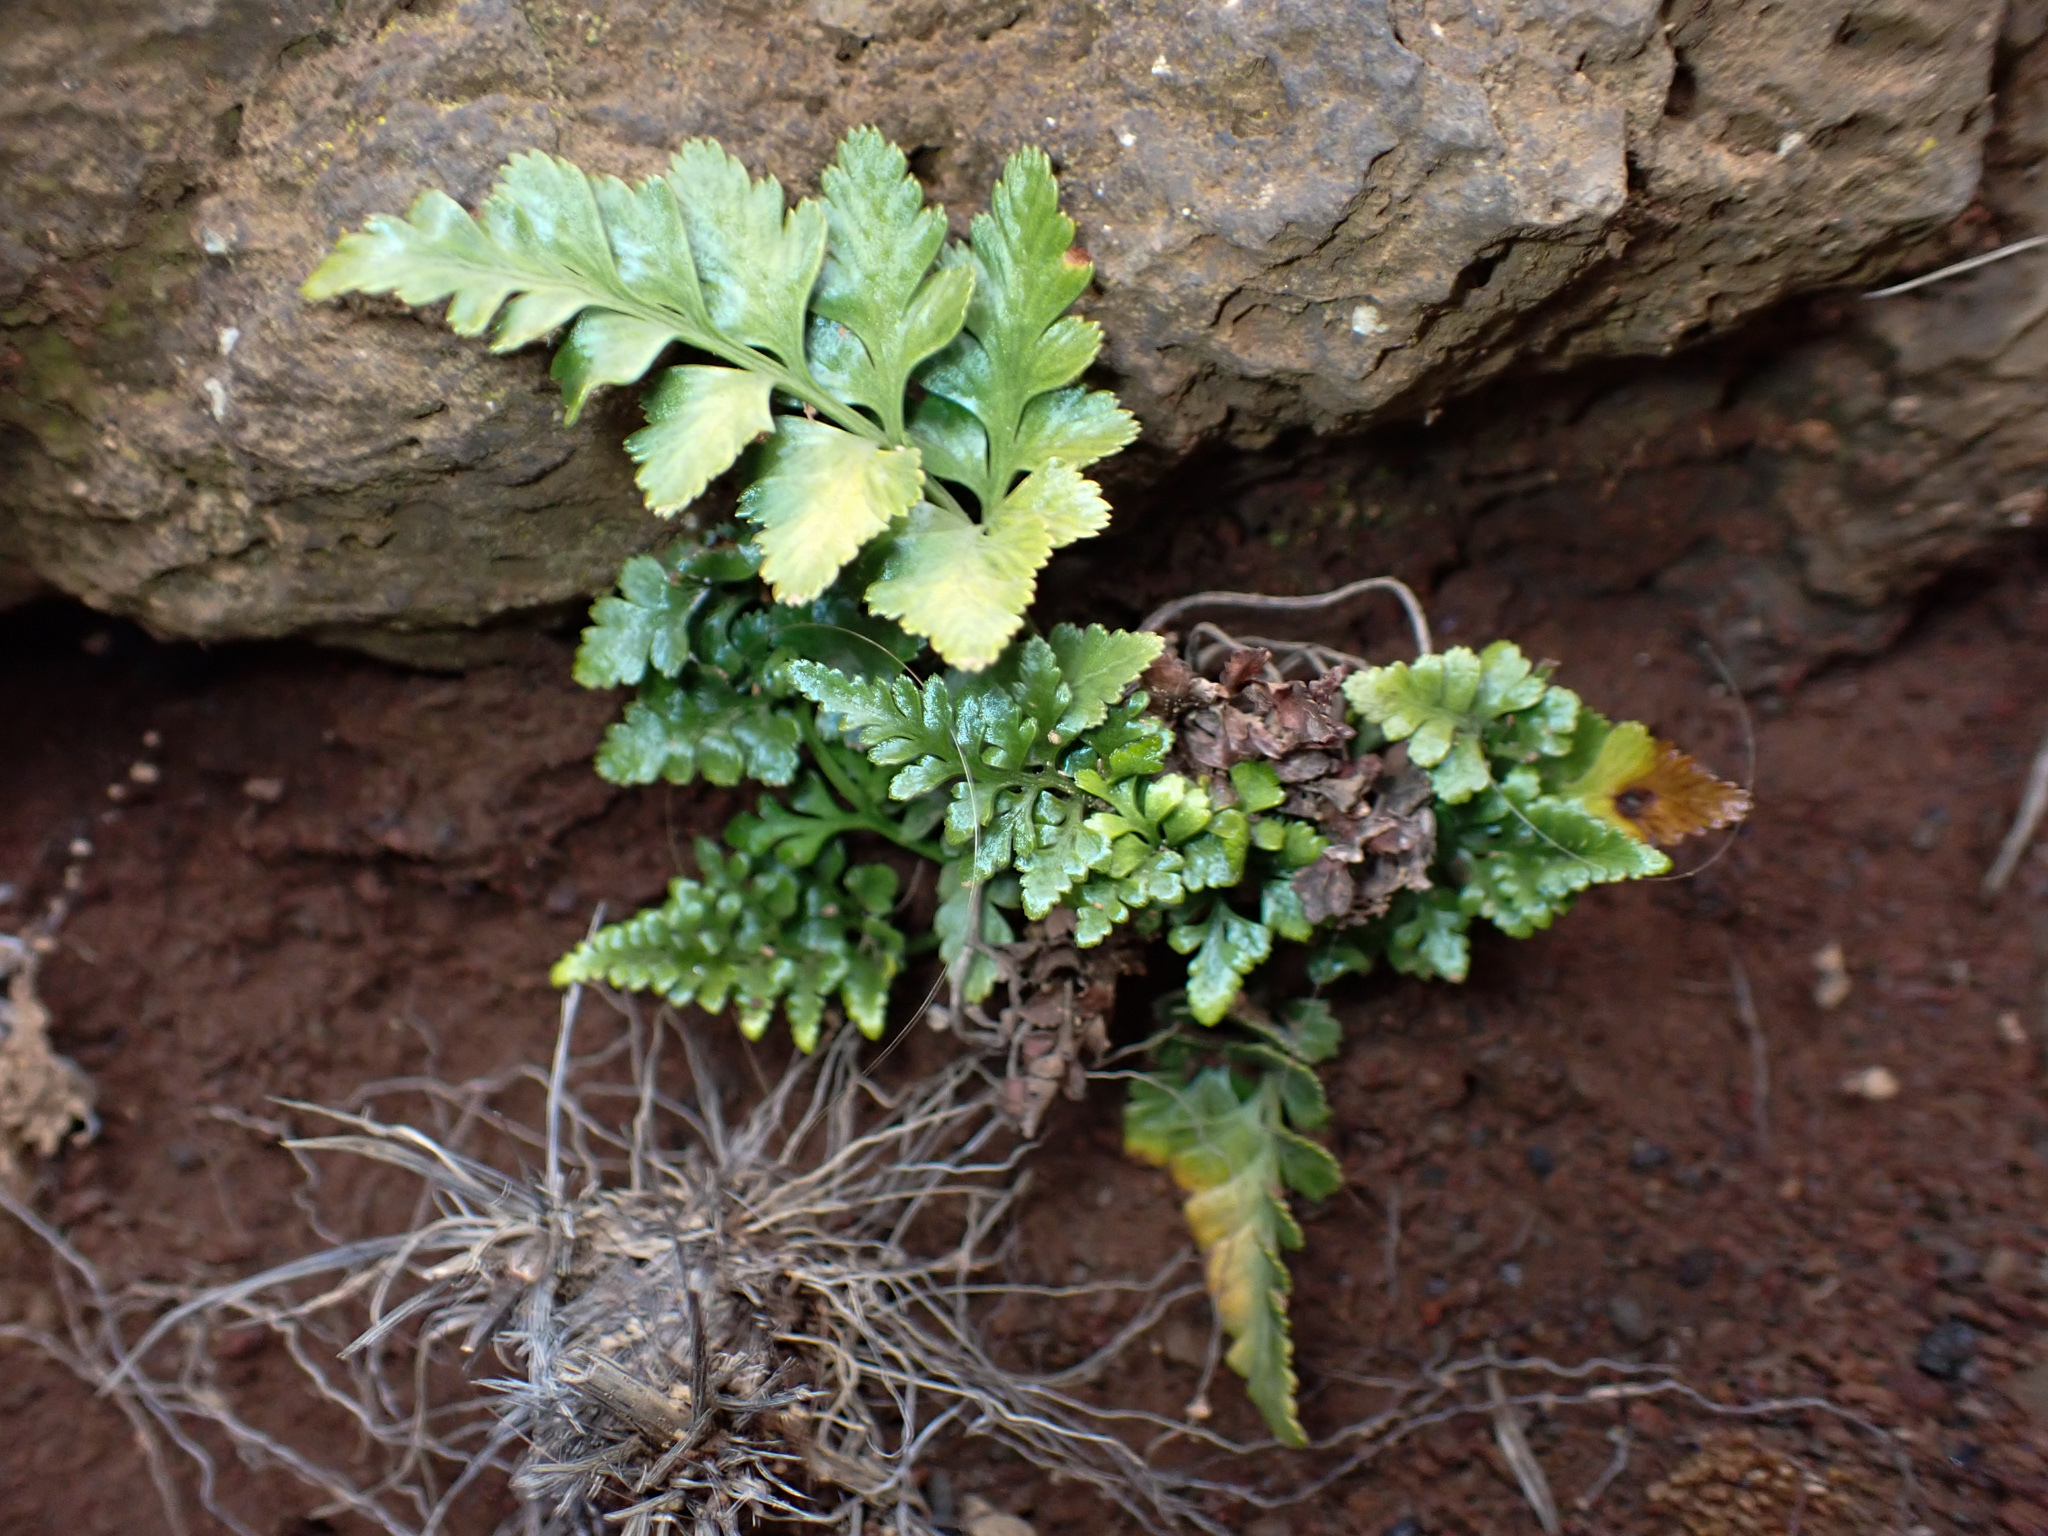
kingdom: Plantae
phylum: Tracheophyta
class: Polypodiopsida
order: Polypodiales
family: Aspleniaceae
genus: Asplenium
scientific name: Asplenium adiantum-nigrum
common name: Black spleenwort
